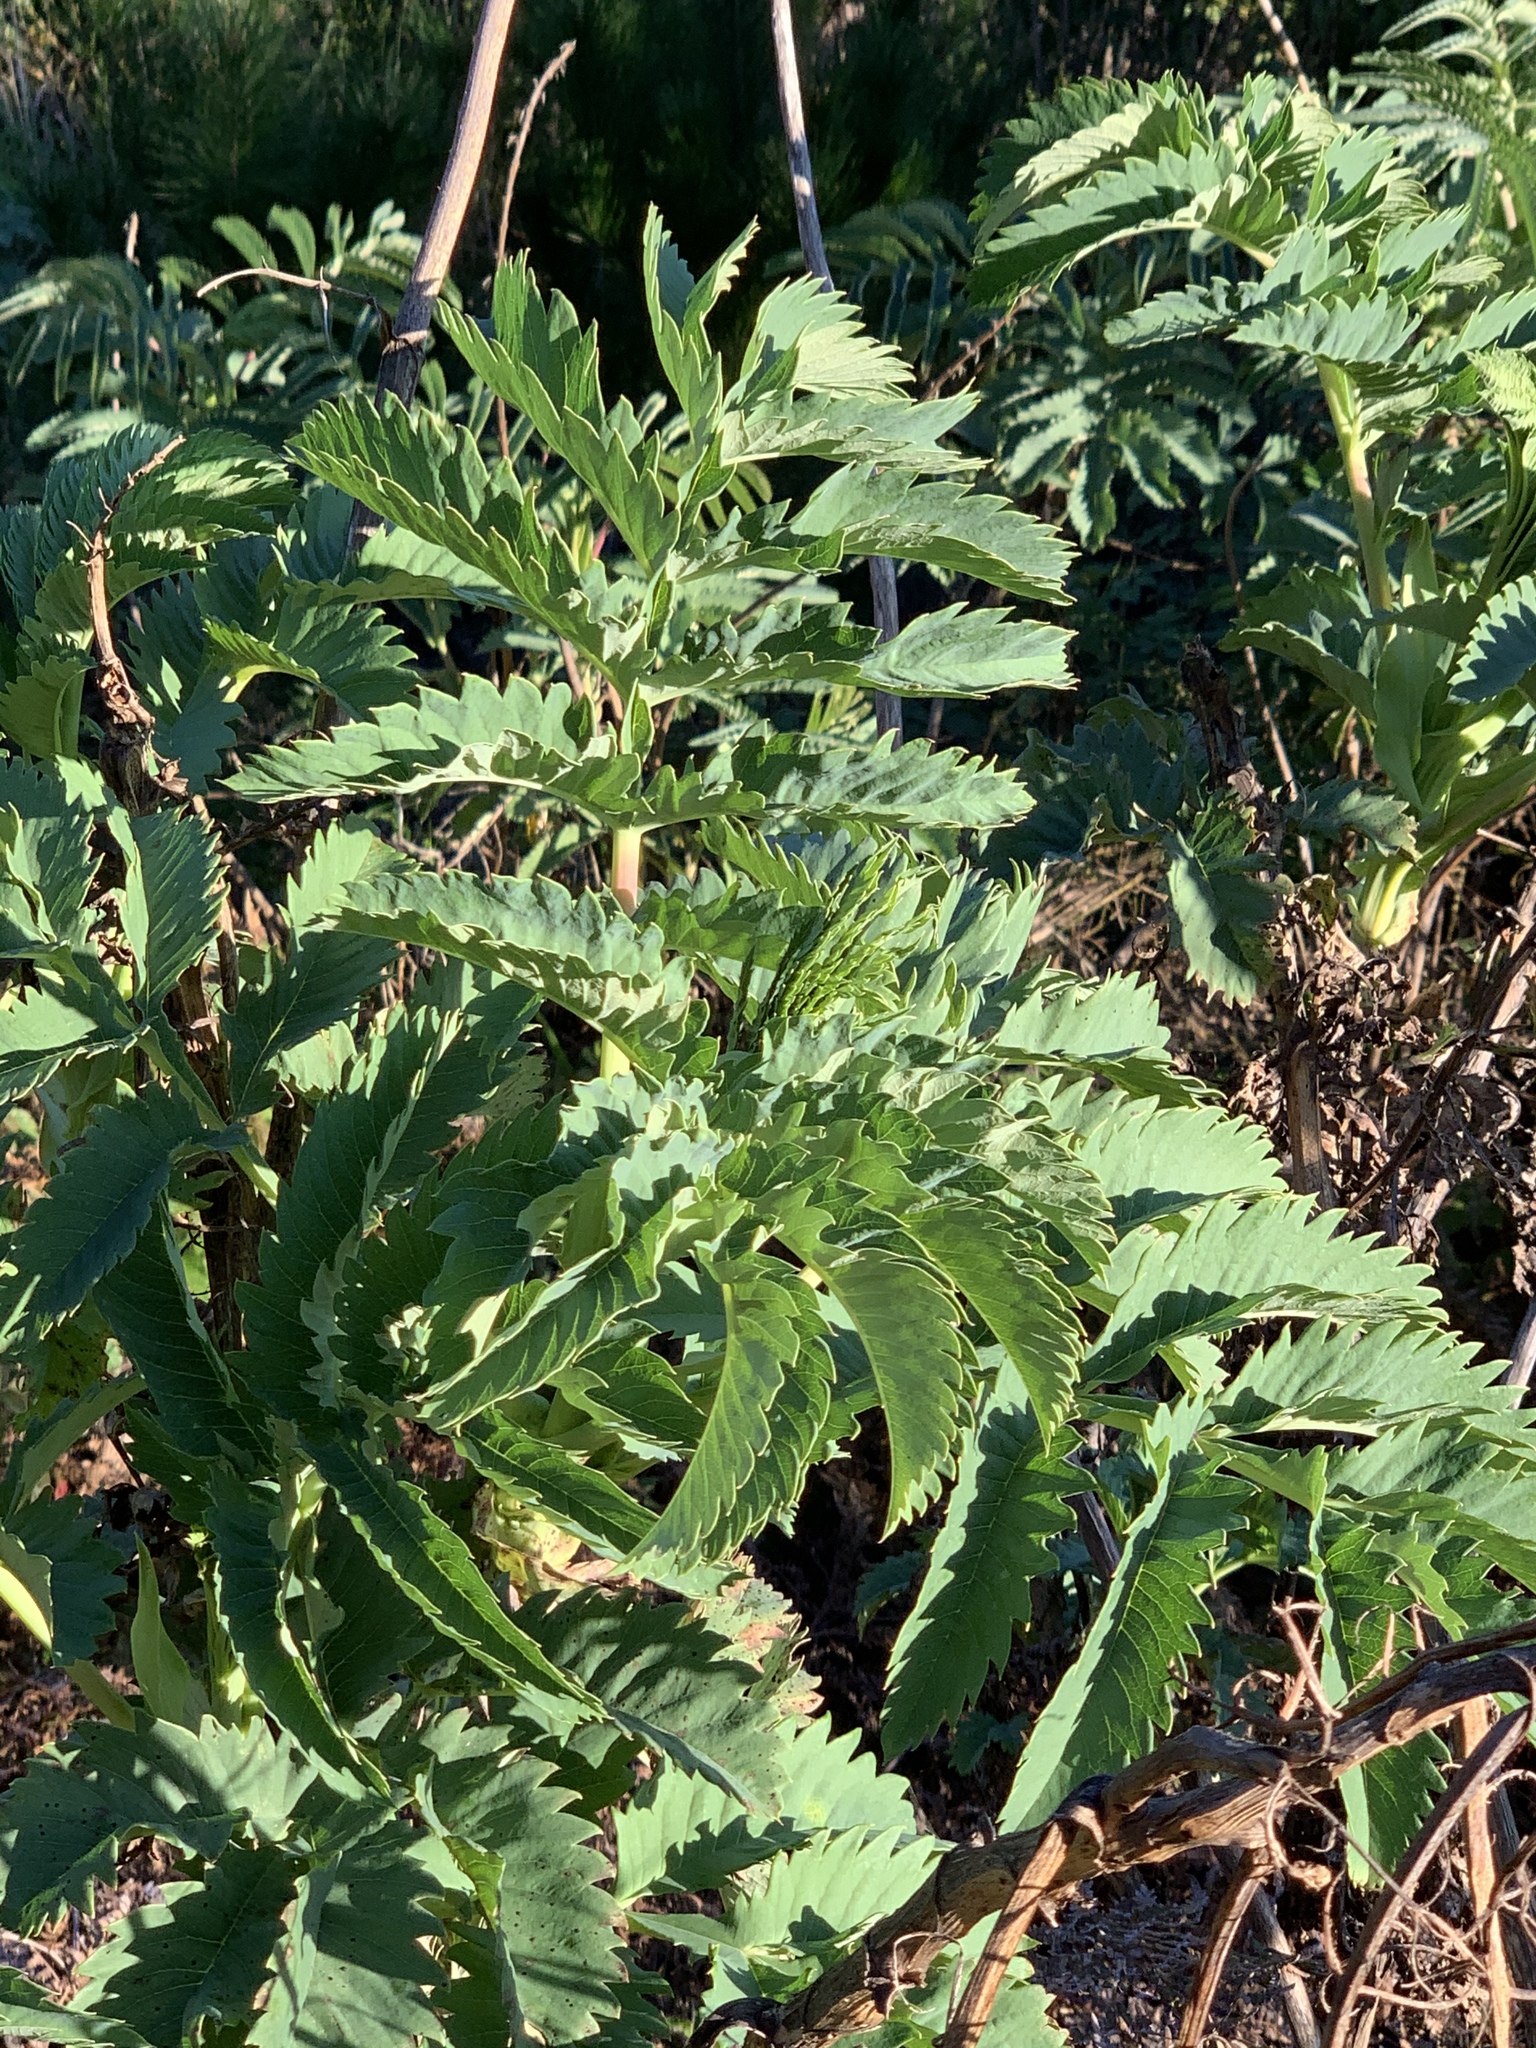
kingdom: Plantae
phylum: Tracheophyta
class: Magnoliopsida
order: Geraniales
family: Melianthaceae
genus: Melianthus
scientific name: Melianthus major
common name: Honey-flower
